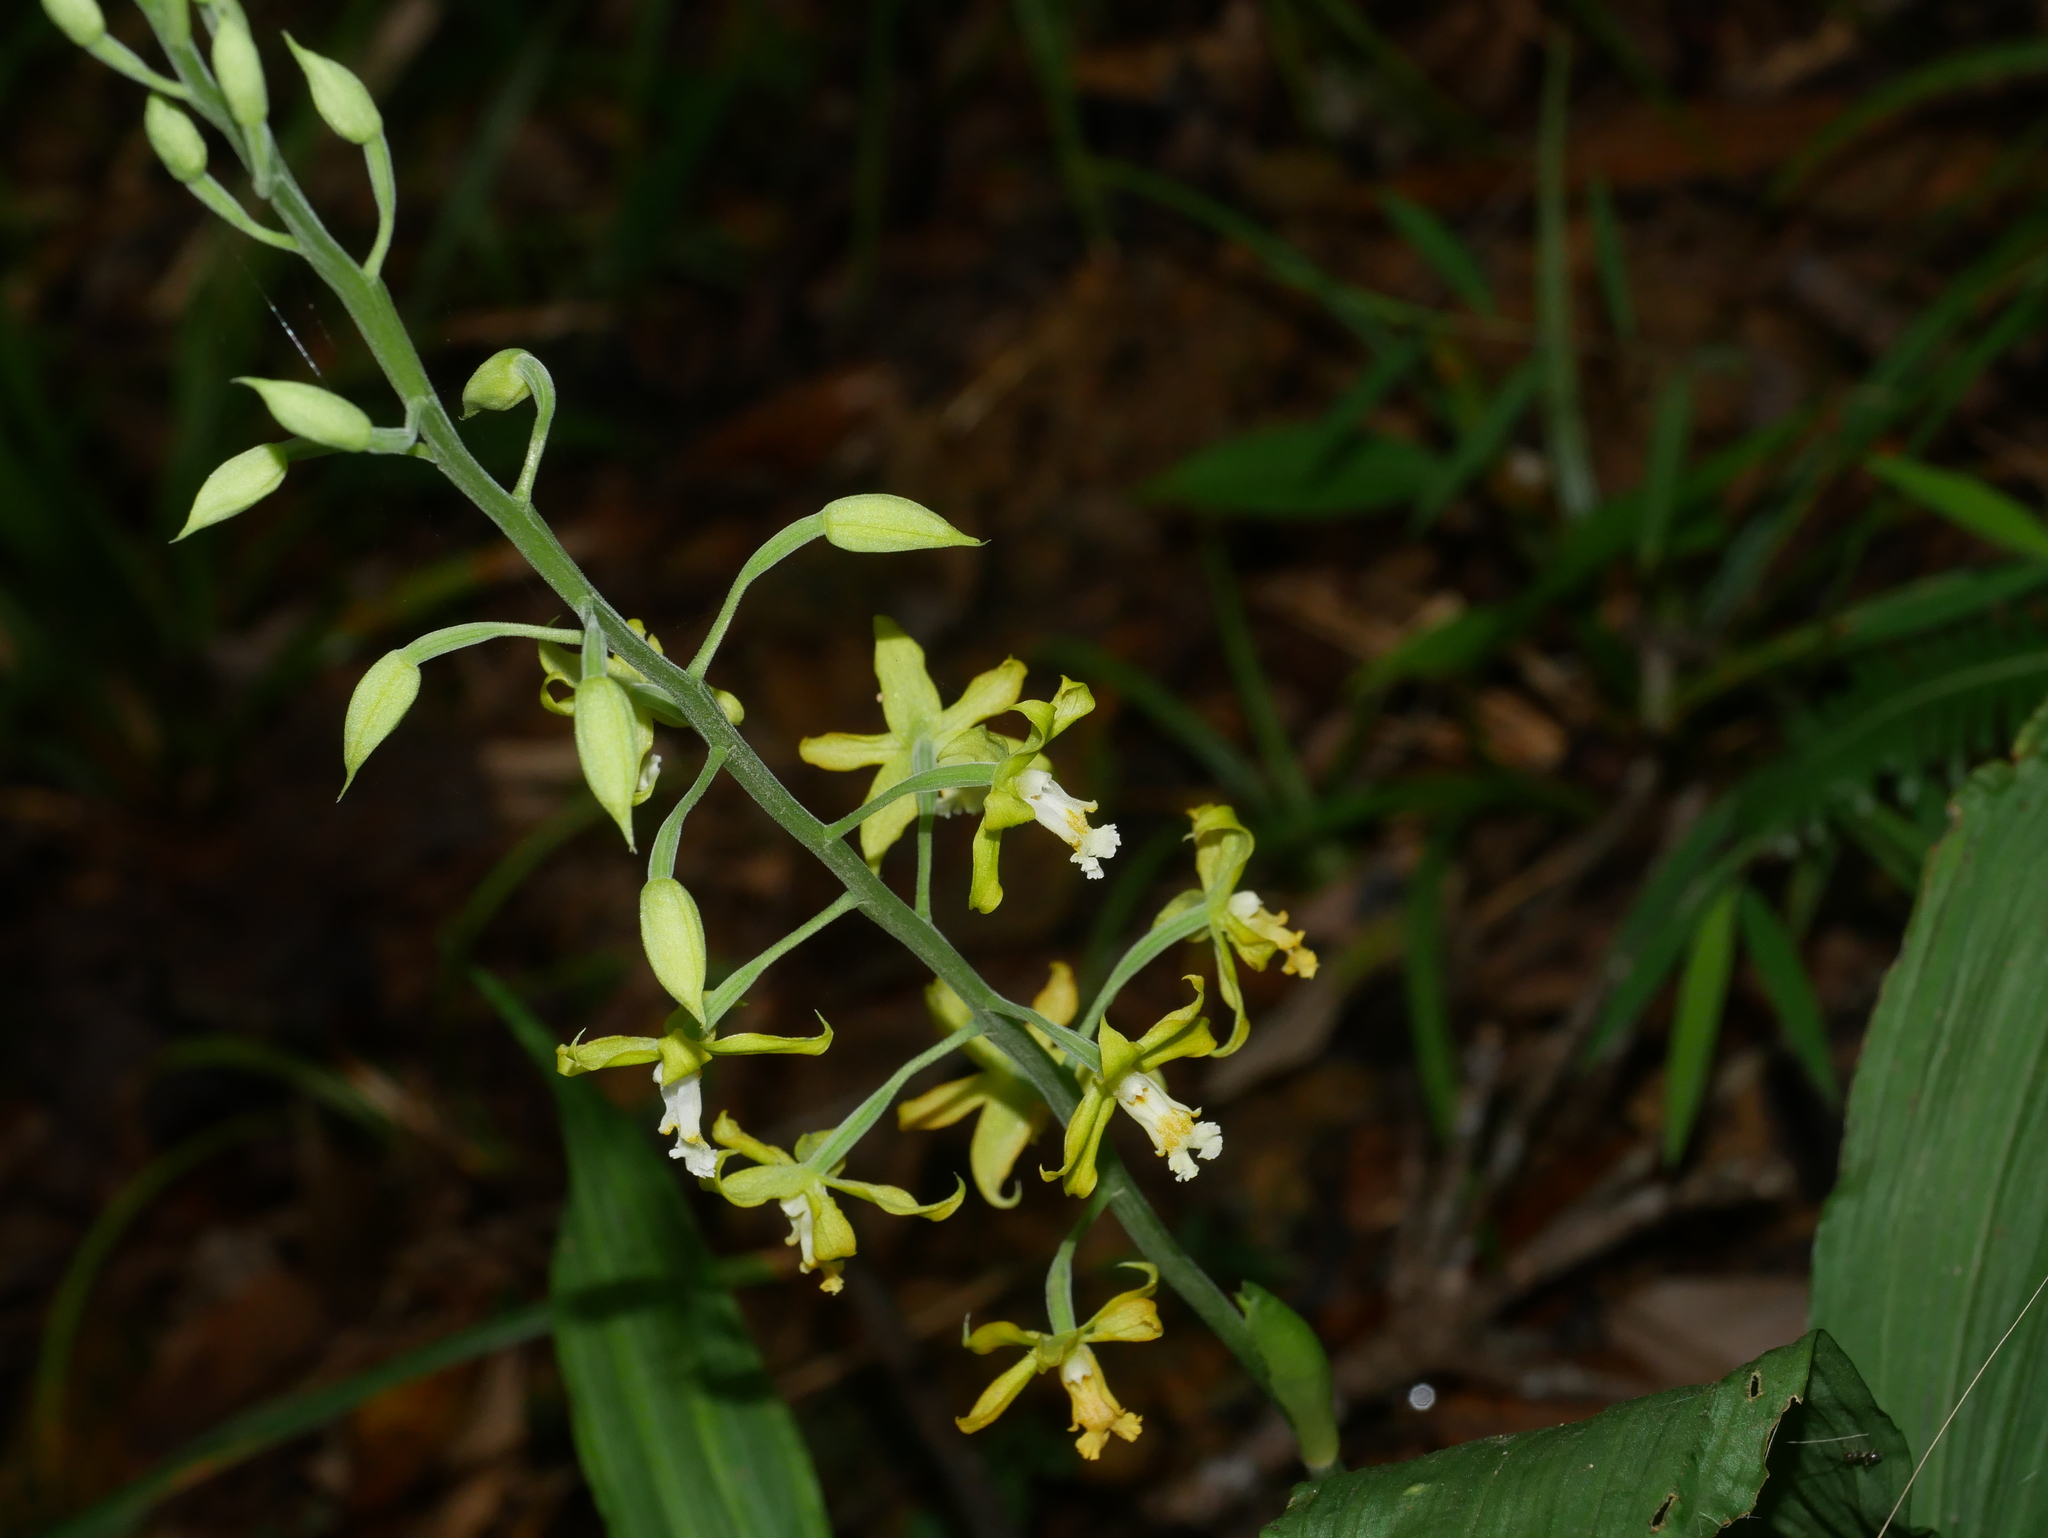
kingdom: Plantae
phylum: Tracheophyta
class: Liliopsida
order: Asparagales
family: Orchidaceae
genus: Calanthe
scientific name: Calanthe obcordata
